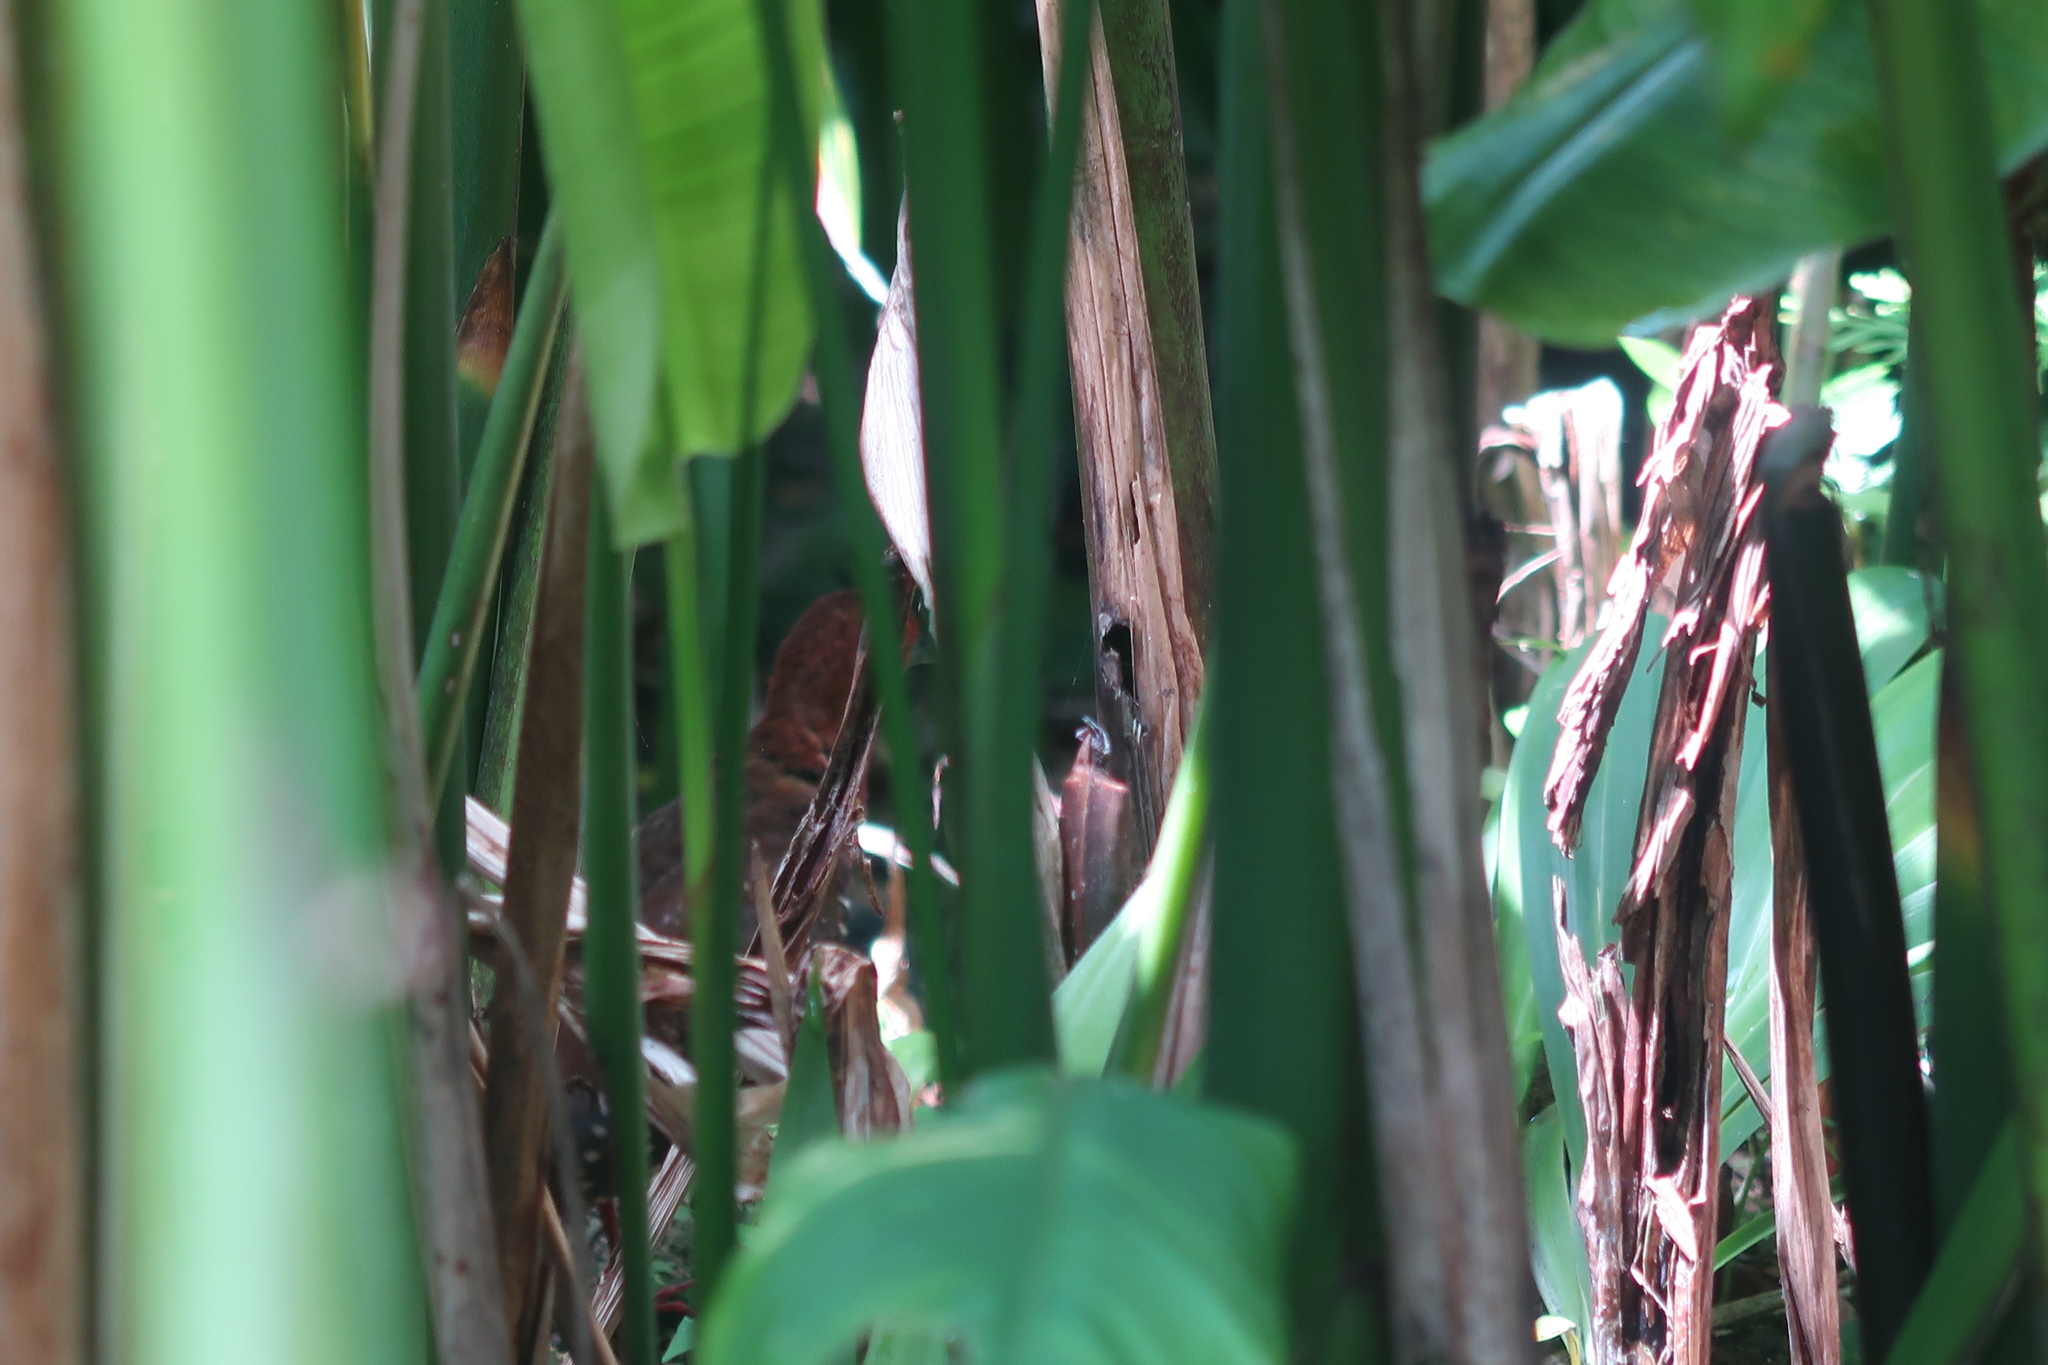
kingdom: Animalia
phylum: Chordata
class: Aves
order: Gruiformes
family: Rallidae
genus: Rallina
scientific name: Rallina fasciata
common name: Red-legged crake
